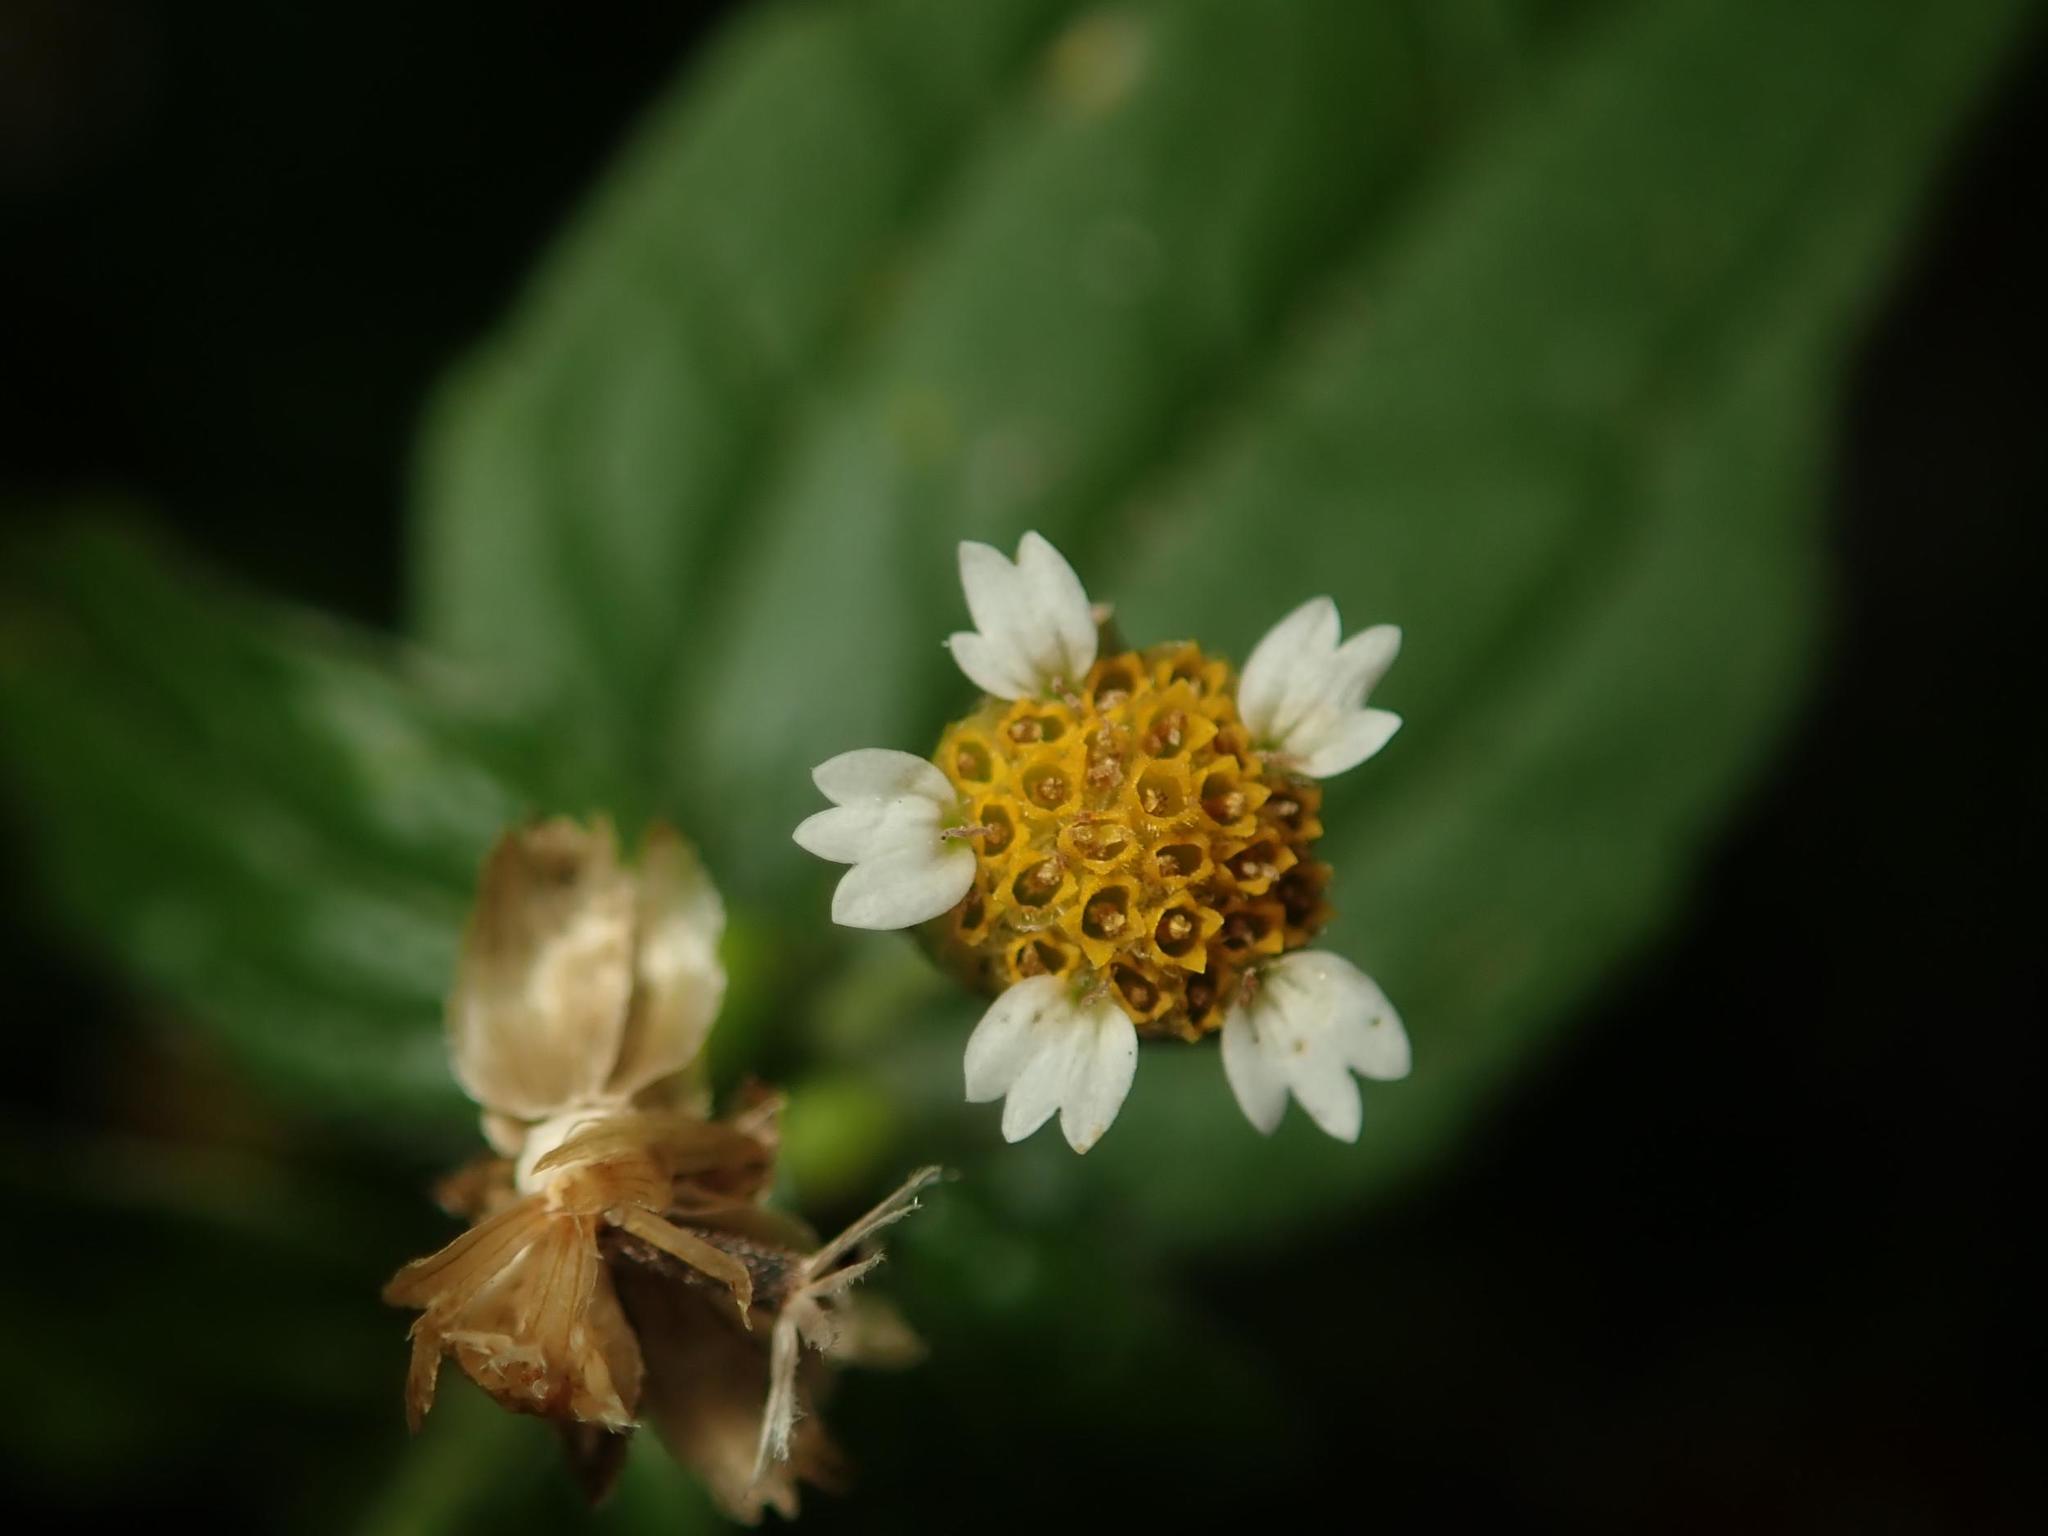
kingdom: Plantae
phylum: Tracheophyta
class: Magnoliopsida
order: Asterales
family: Asteraceae
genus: Galinsoga
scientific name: Galinsoga parviflora
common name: Gallant soldier
